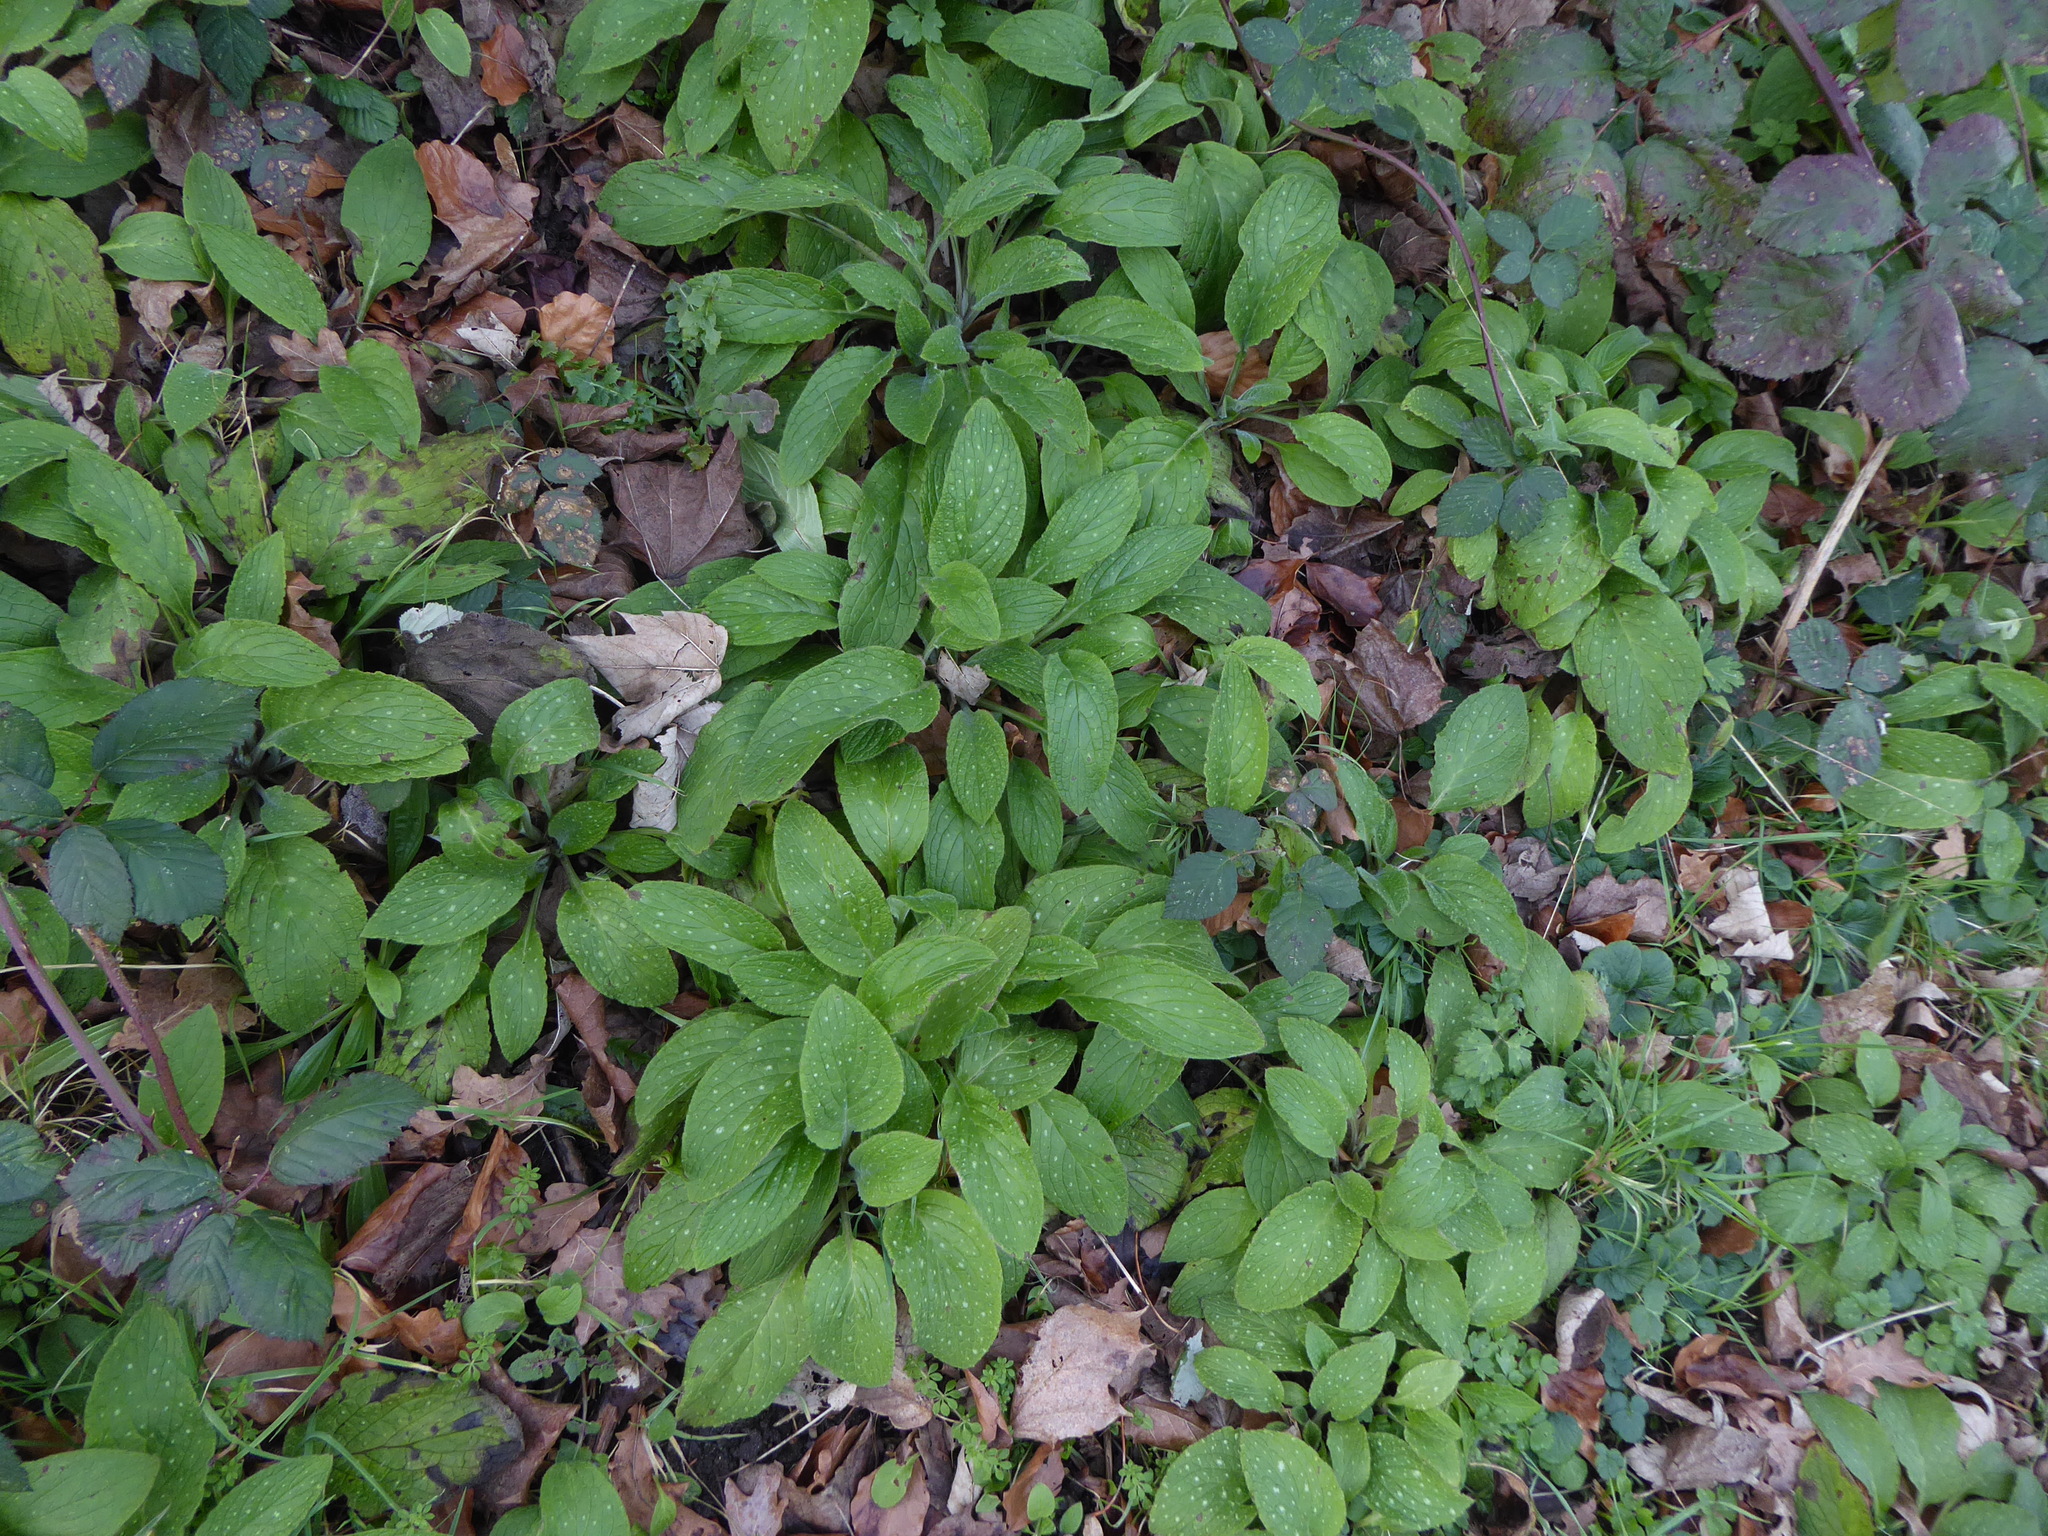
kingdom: Plantae
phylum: Tracheophyta
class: Magnoliopsida
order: Boraginales
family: Boraginaceae
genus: Pentaglottis
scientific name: Pentaglottis sempervirens
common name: Green alkanet
